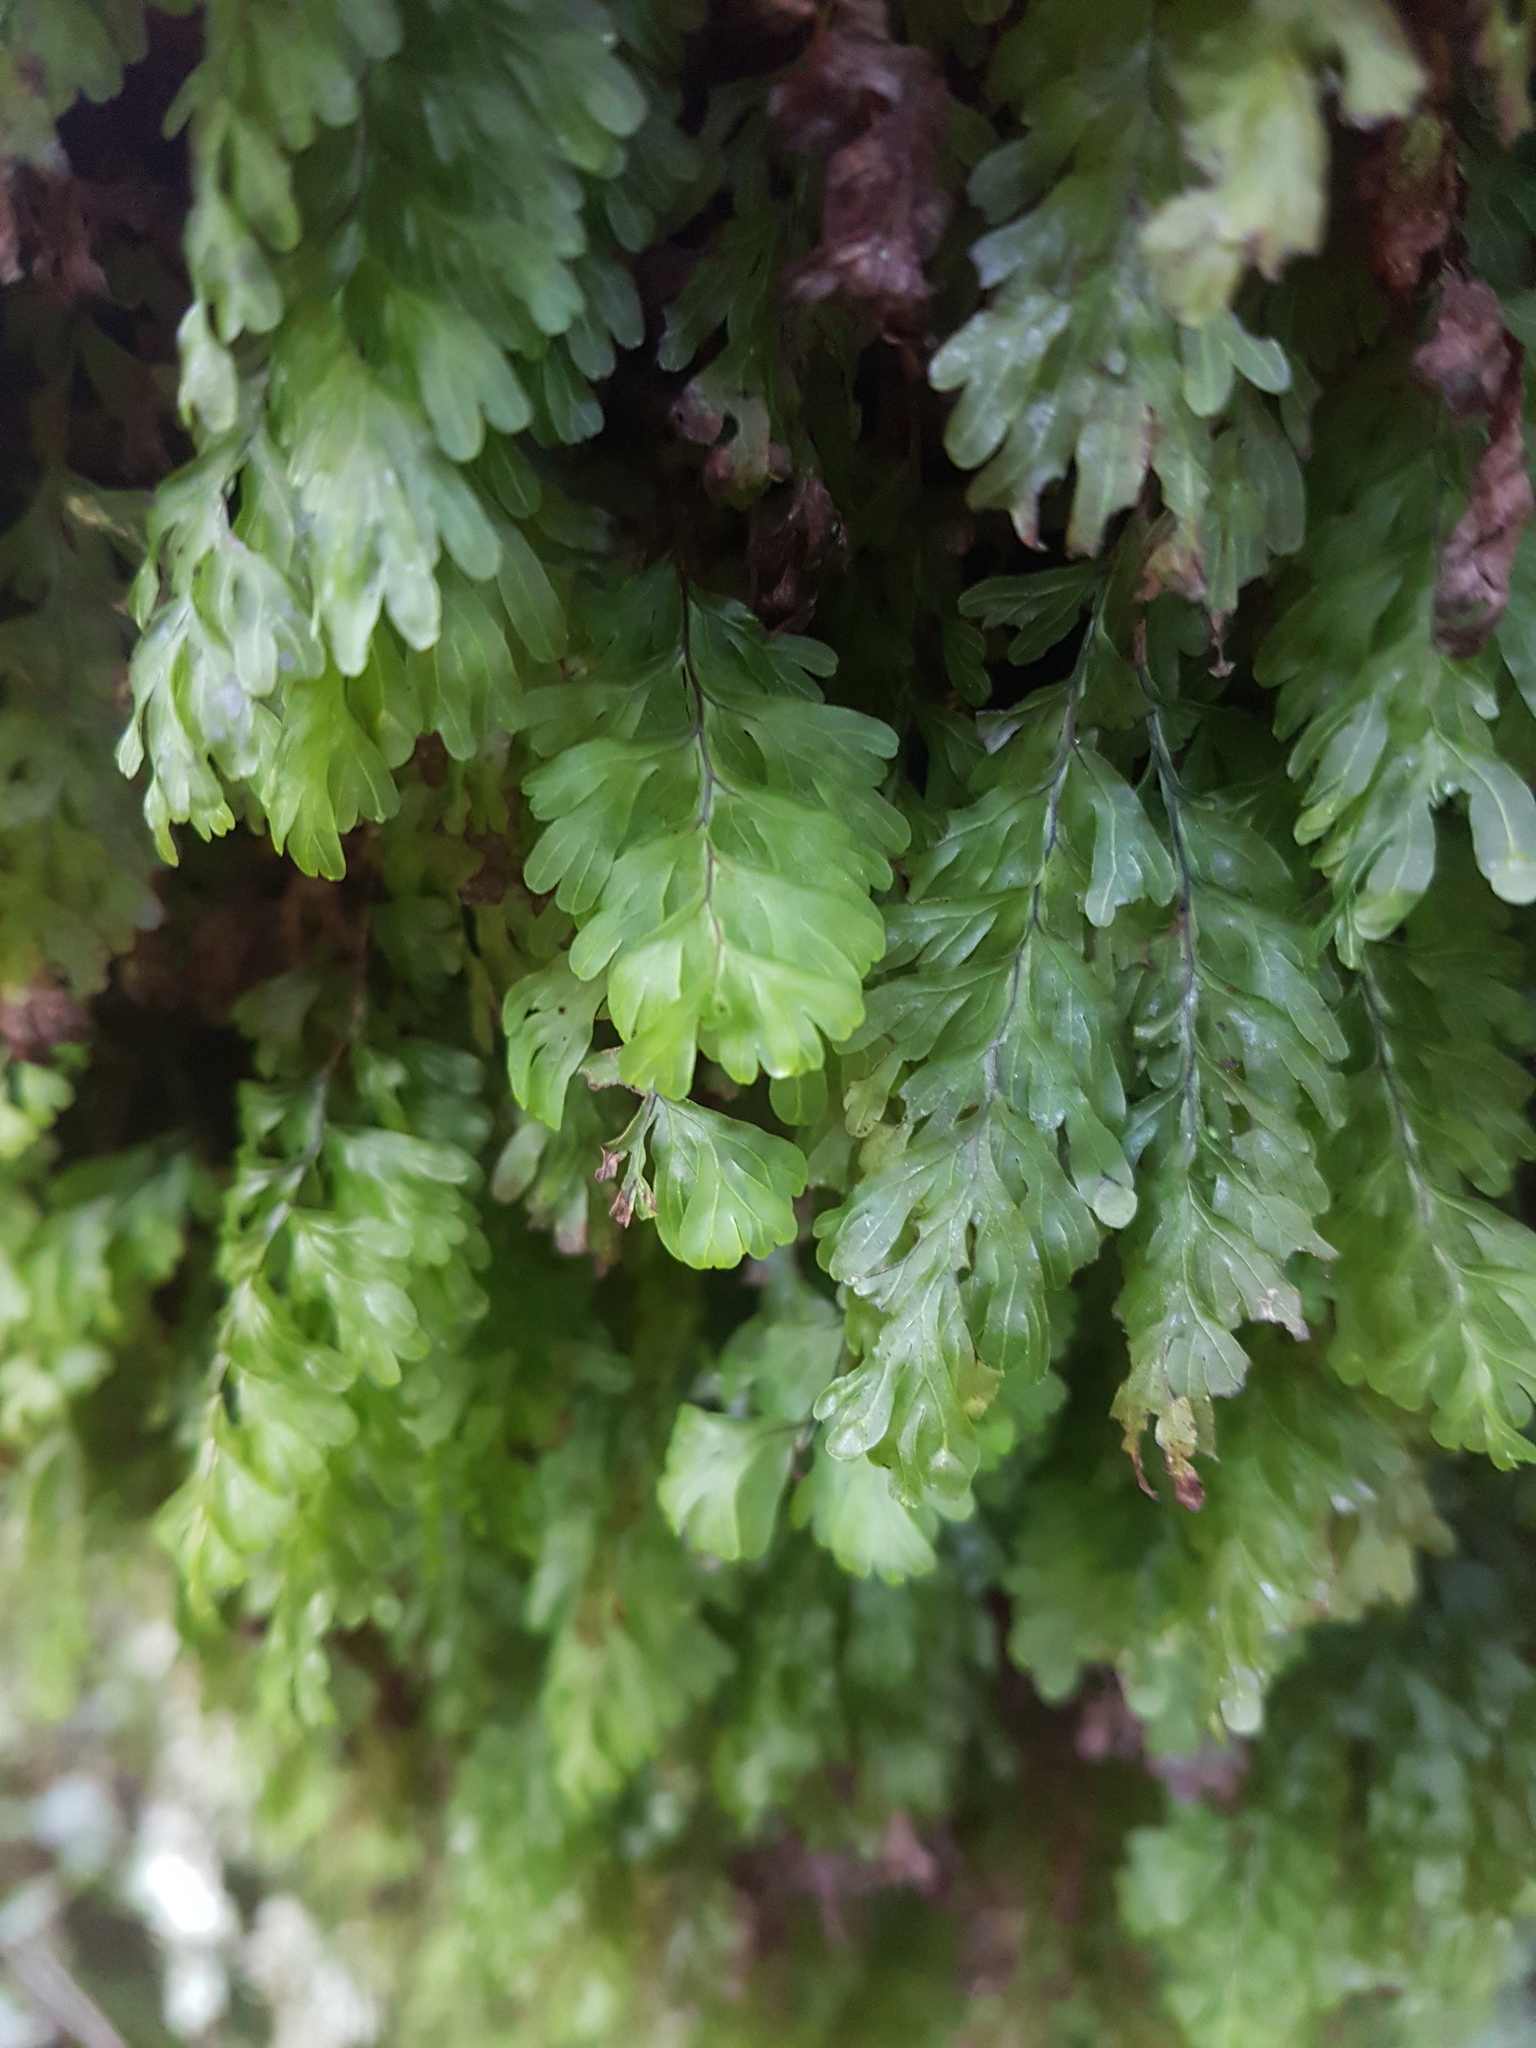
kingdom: Plantae
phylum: Tracheophyta
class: Polypodiopsida
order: Hymenophyllales
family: Hymenophyllaceae
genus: Hymenophyllum
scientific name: Hymenophyllum rarum
